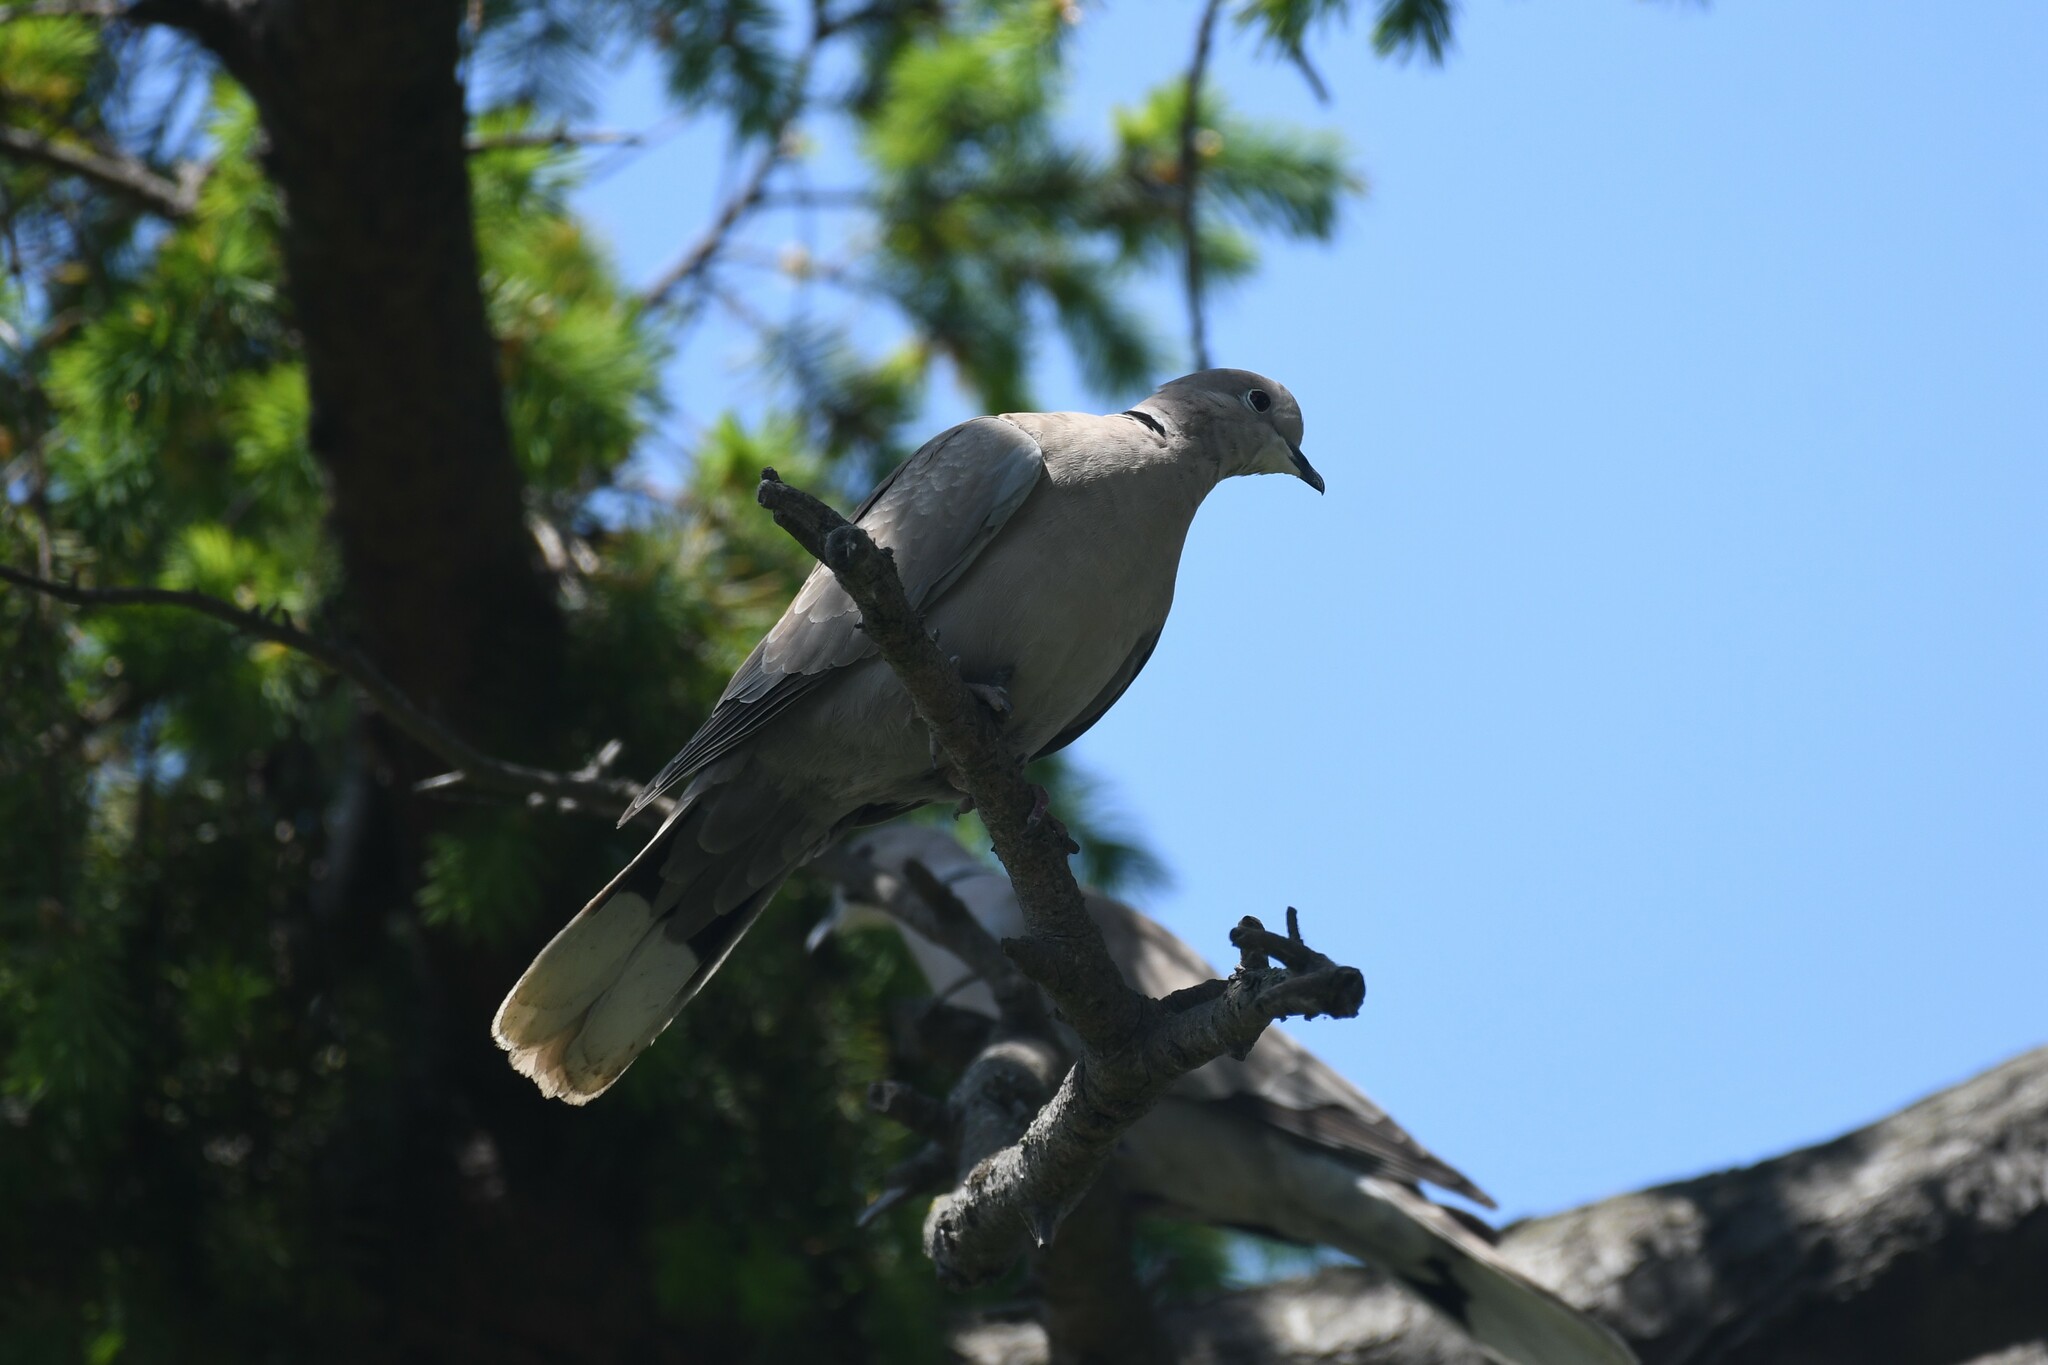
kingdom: Animalia
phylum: Chordata
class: Aves
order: Columbiformes
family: Columbidae
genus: Streptopelia
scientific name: Streptopelia decaocto
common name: Eurasian collared dove
